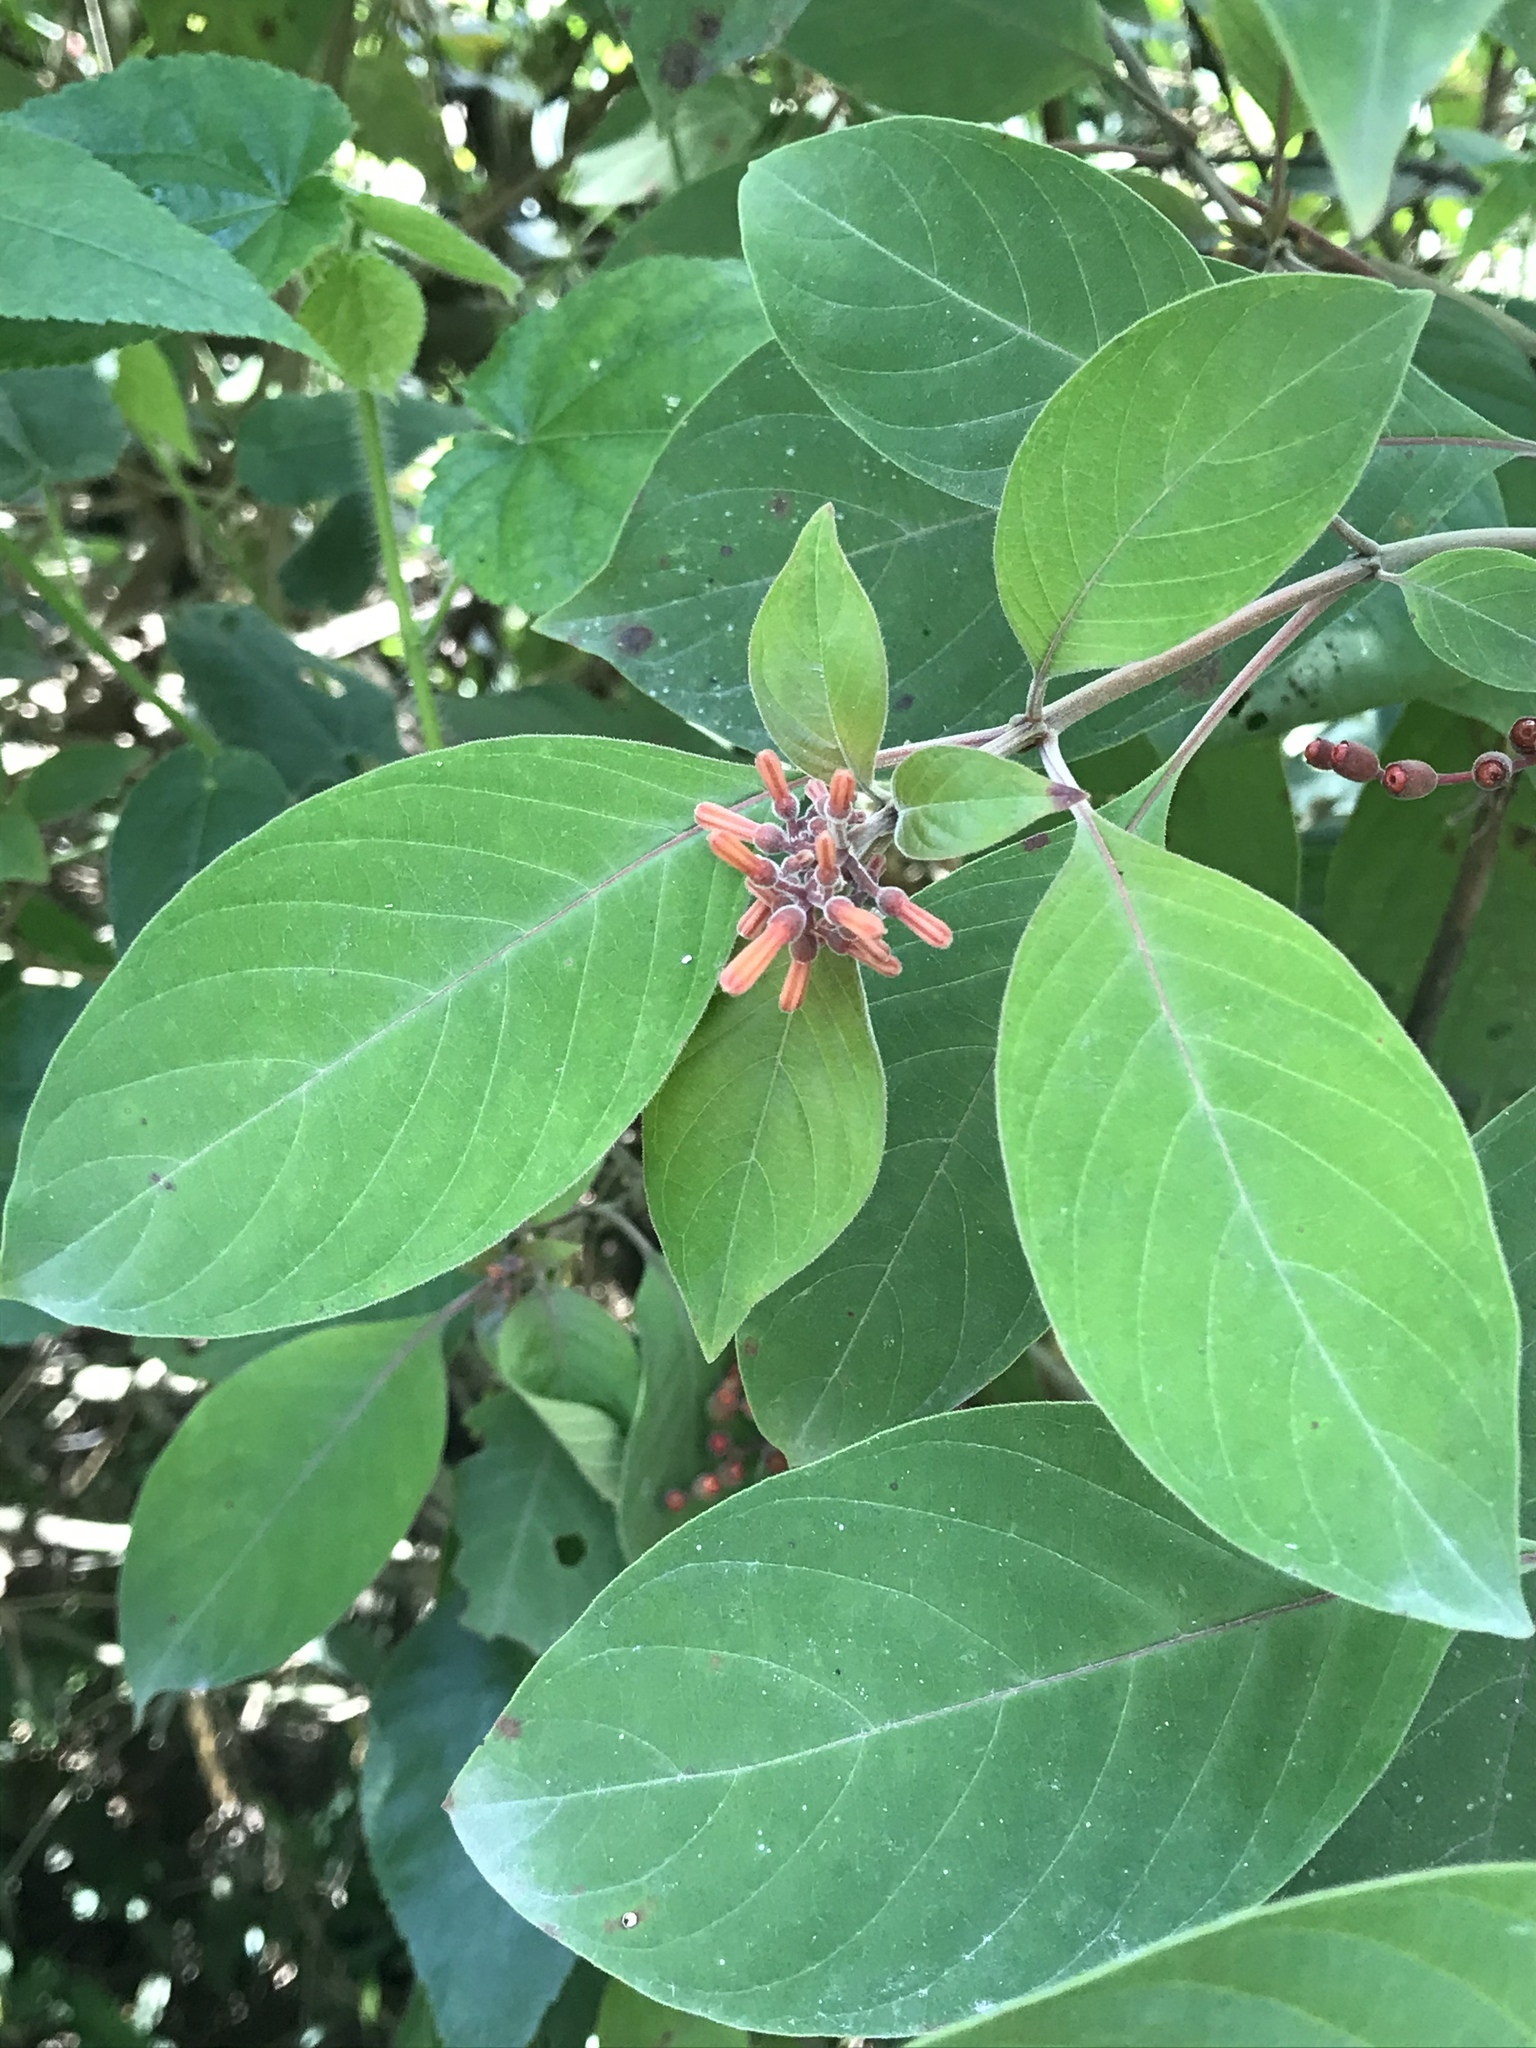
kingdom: Plantae
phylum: Tracheophyta
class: Magnoliopsida
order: Gentianales
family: Rubiaceae
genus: Hamelia
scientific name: Hamelia patens
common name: Redhead
